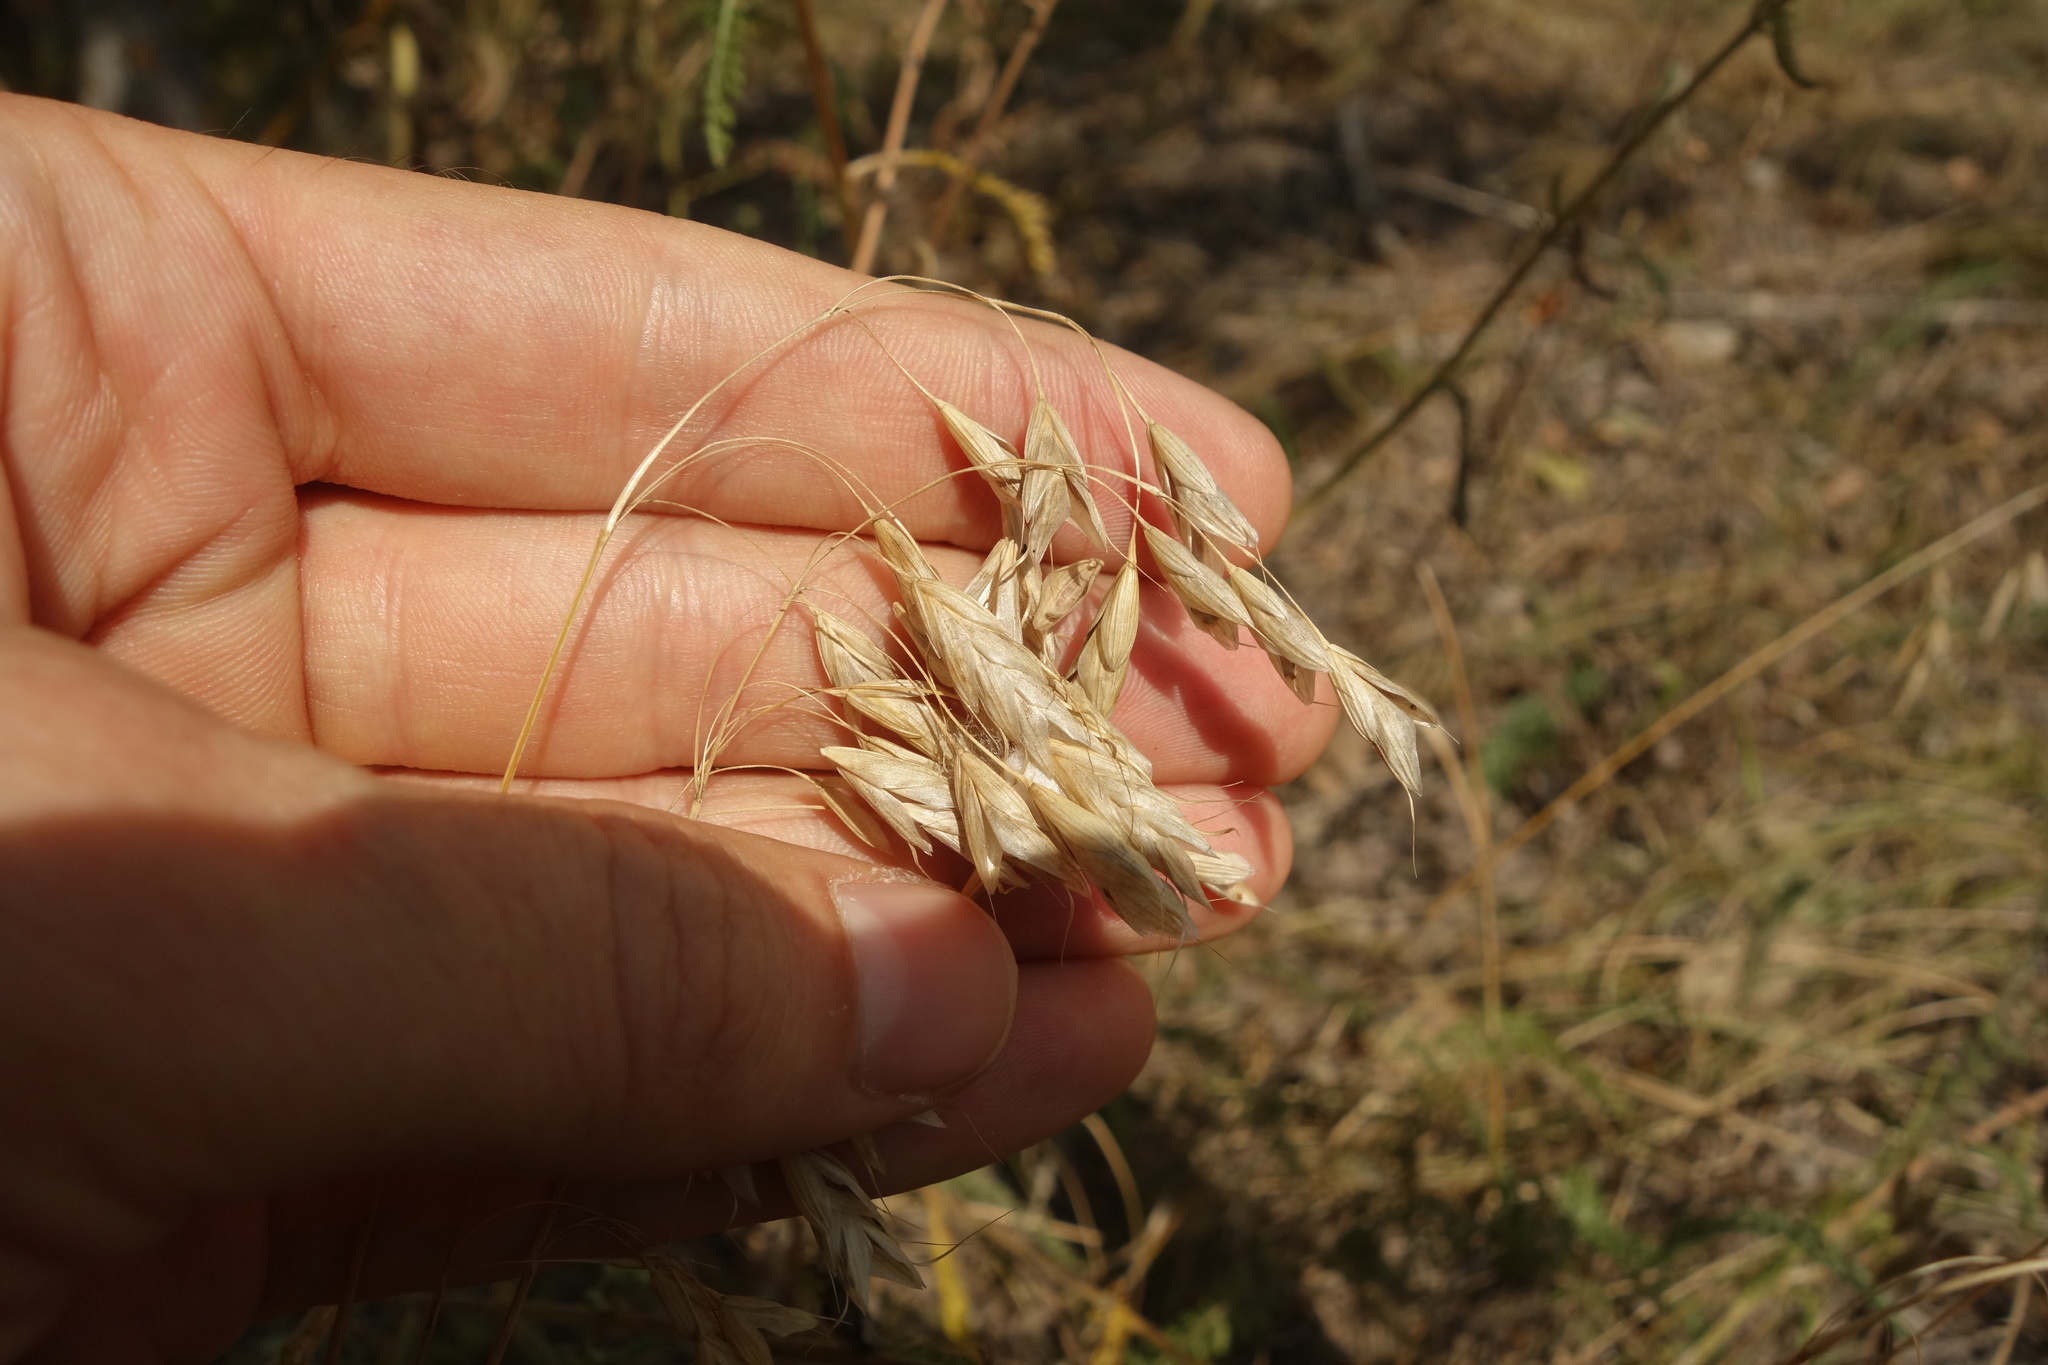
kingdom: Plantae
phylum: Tracheophyta
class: Liliopsida
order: Poales
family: Poaceae
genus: Bromus
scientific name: Bromus squarrosus
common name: Corn brome
